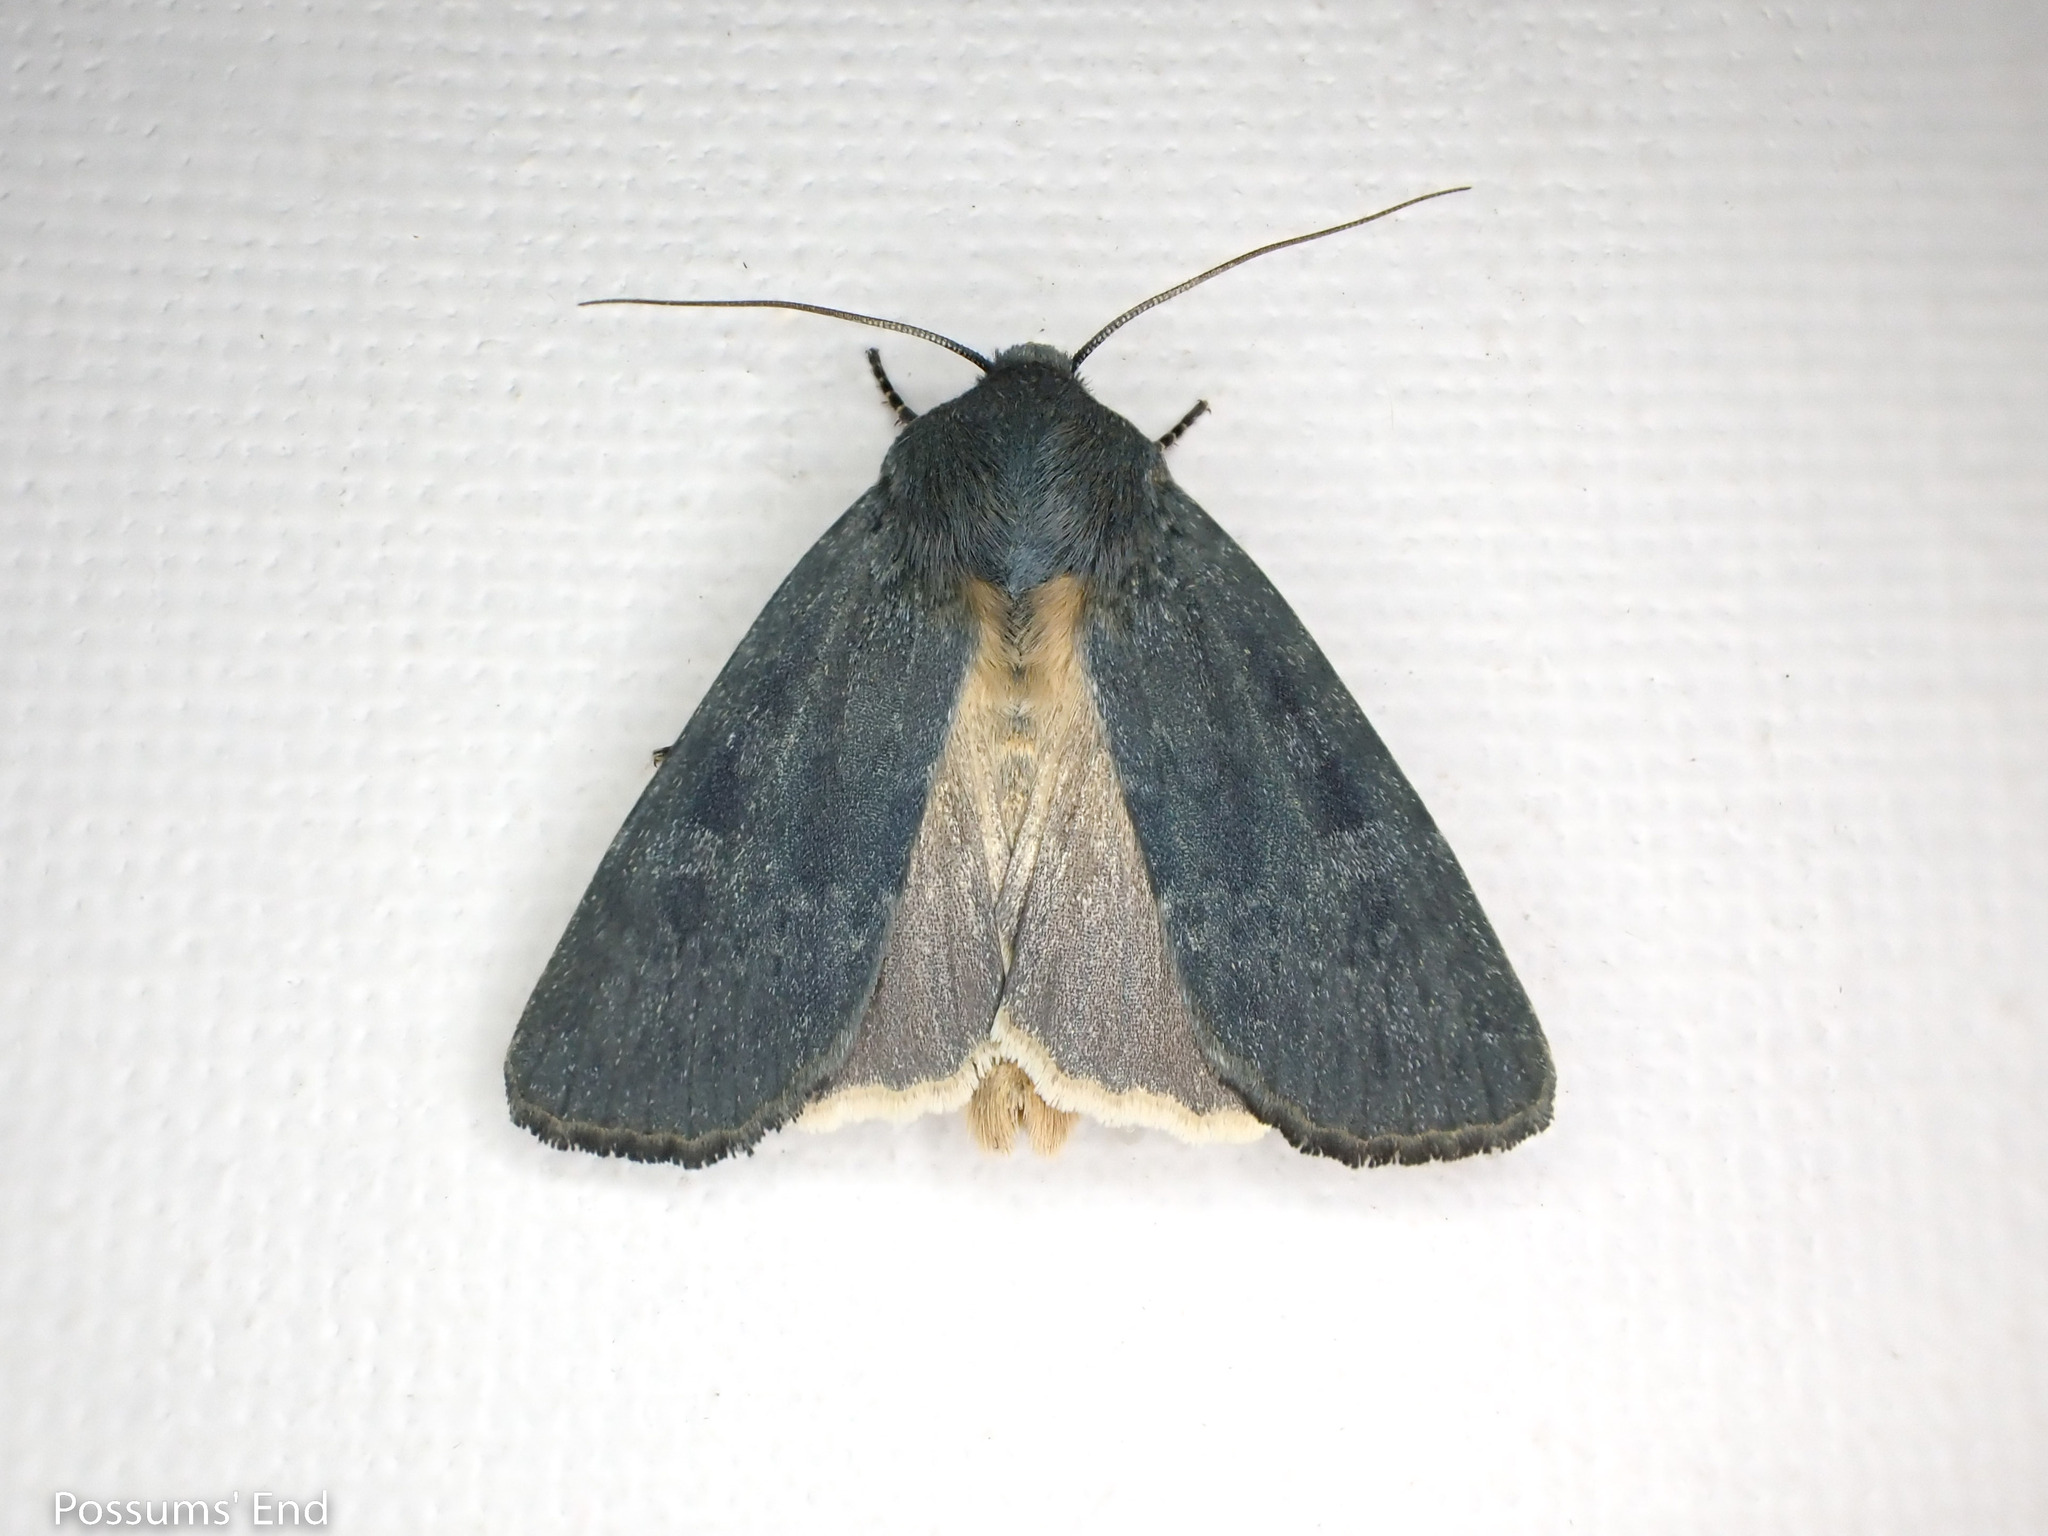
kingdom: Animalia
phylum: Arthropoda
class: Insecta
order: Lepidoptera
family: Noctuidae
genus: Physetica
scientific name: Physetica caerulea
